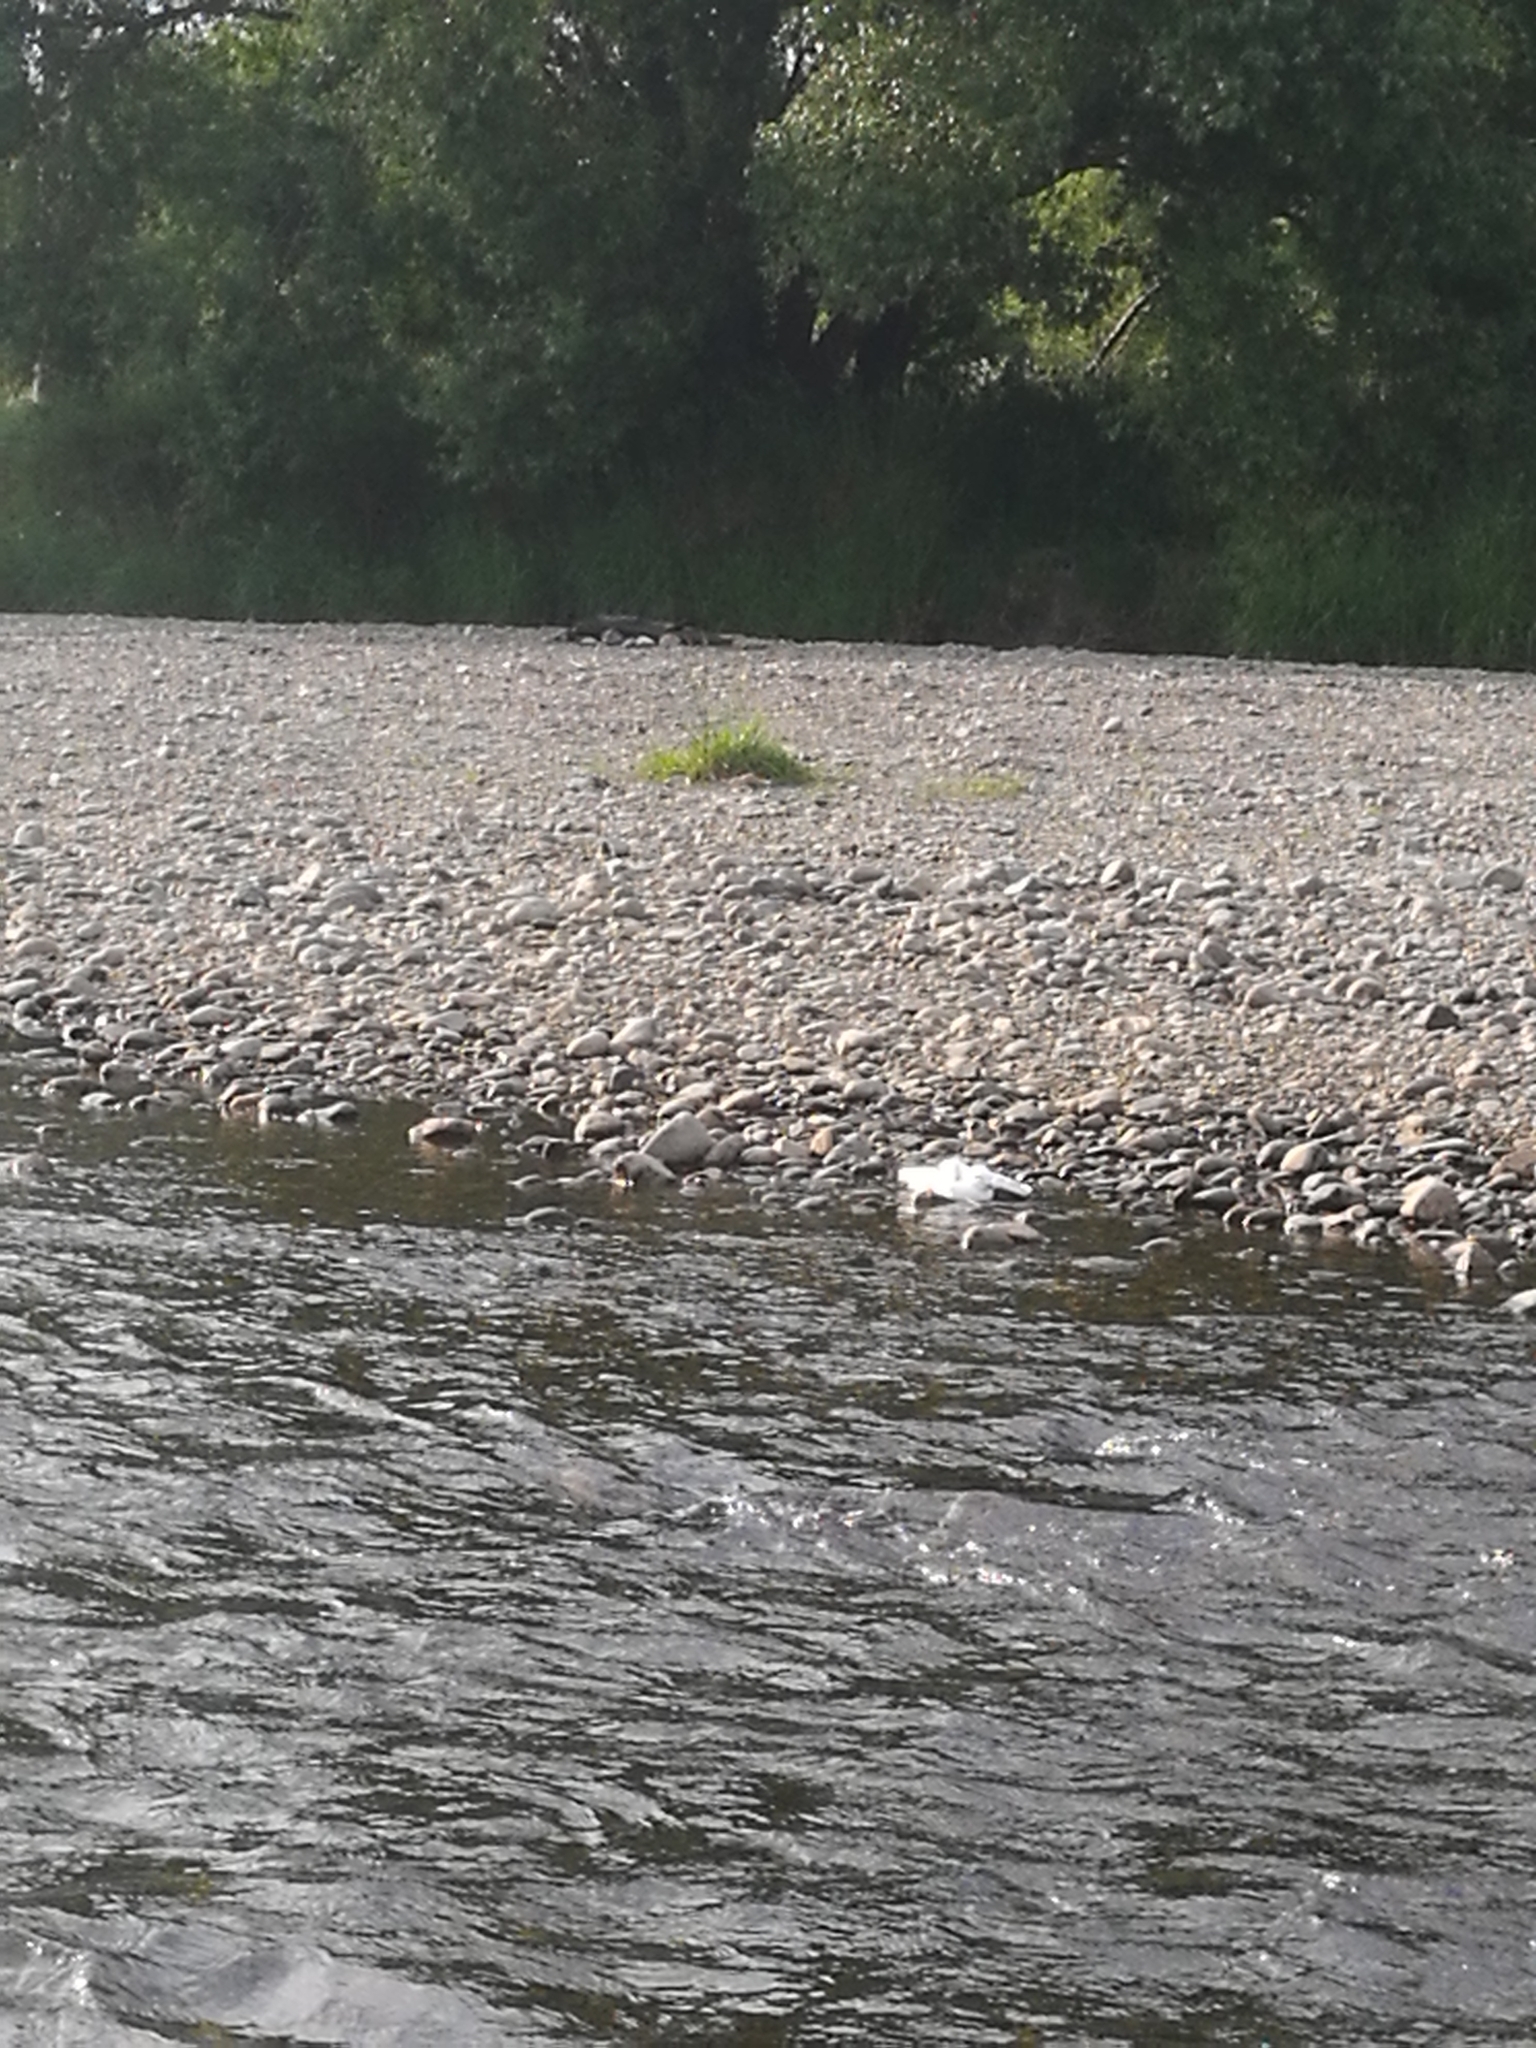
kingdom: Animalia
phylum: Chordata
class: Aves
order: Charadriiformes
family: Laridae
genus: Chroicocephalus
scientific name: Chroicocephalus bulleri
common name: Black-billed gull
